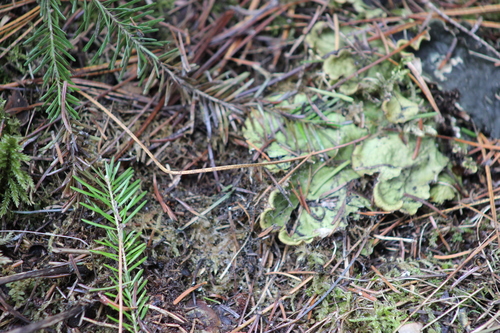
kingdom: Fungi
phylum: Ascomycota
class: Lecanoromycetes
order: Peltigerales
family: Peltigeraceae
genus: Peltigera
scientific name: Peltigera aphthosa
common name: Common freckle pelt lichen
